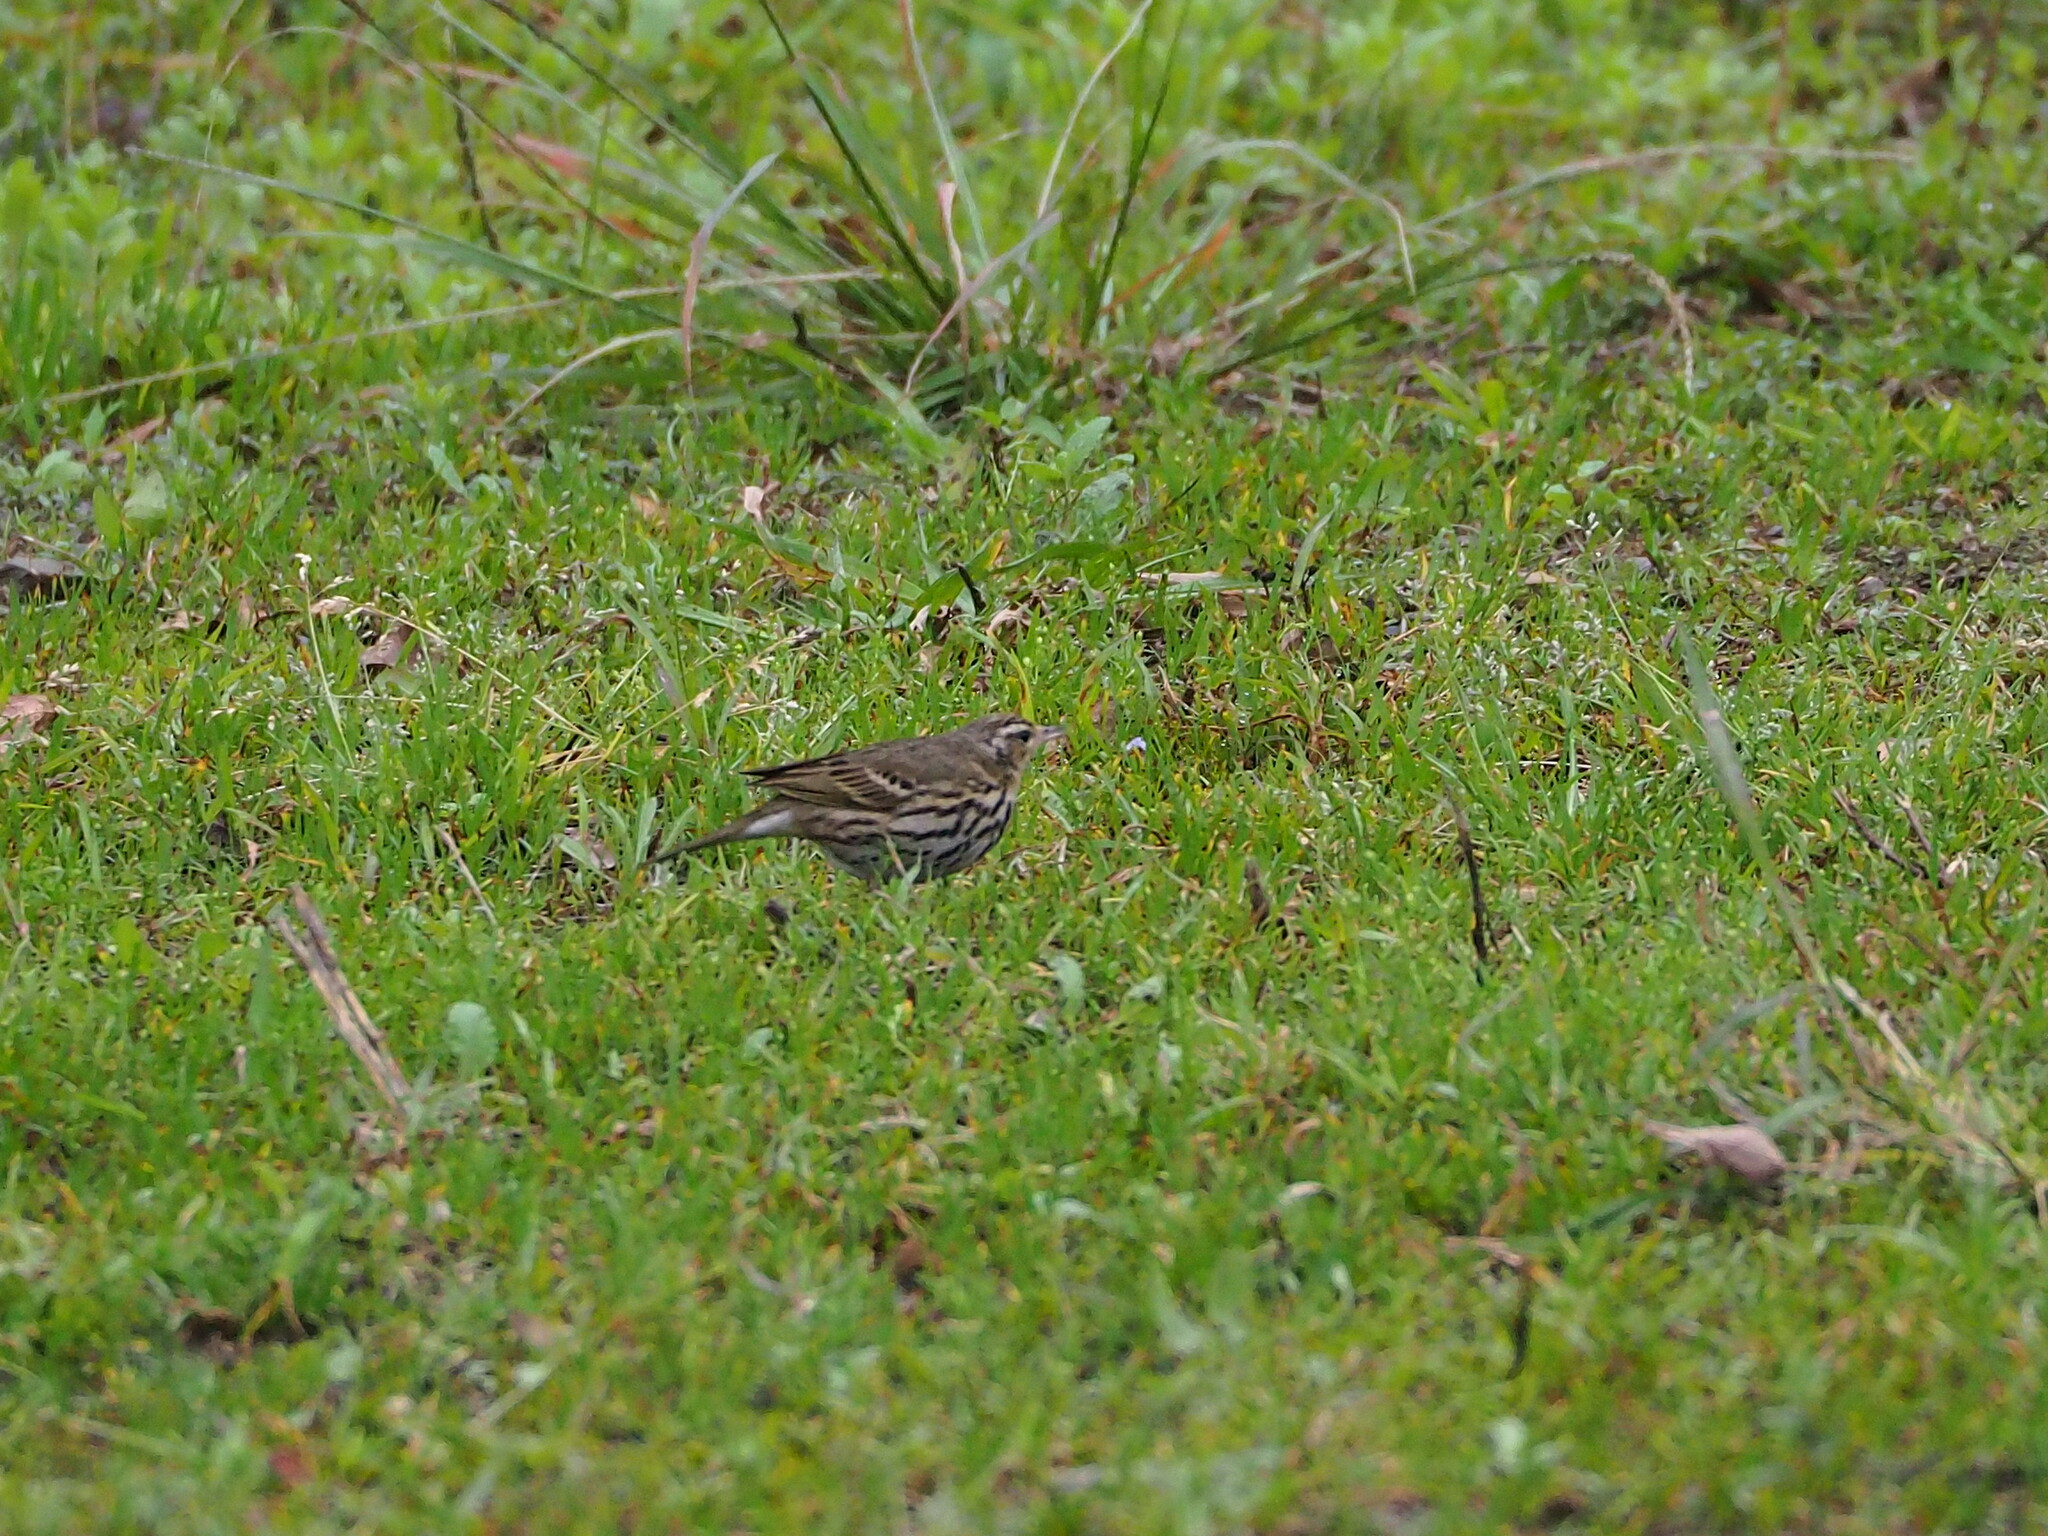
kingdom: Animalia
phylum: Chordata
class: Aves
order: Passeriformes
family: Motacillidae
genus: Anthus
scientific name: Anthus hodgsoni
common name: Olive-backed pipit
